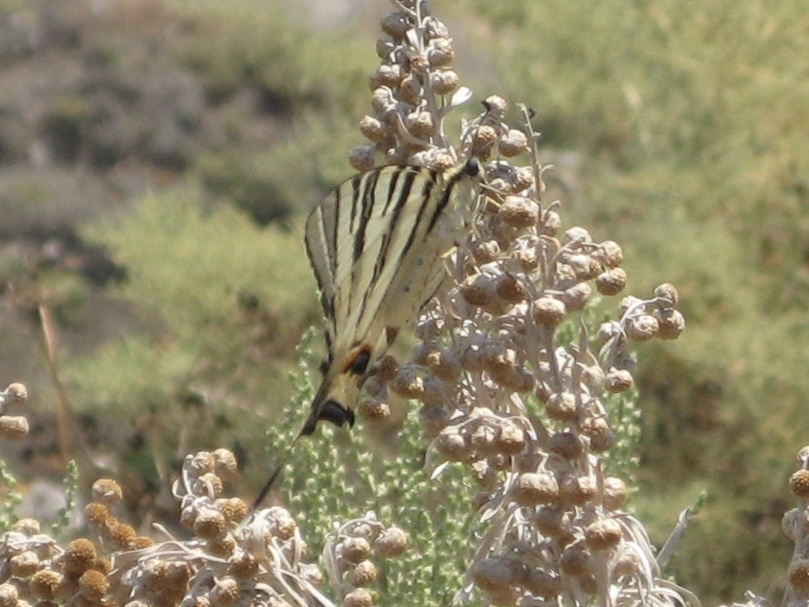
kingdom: Animalia
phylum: Arthropoda
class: Insecta
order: Lepidoptera
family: Papilionidae
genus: Iphiclides
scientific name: Iphiclides podalirius
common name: Scarce swallowtail
